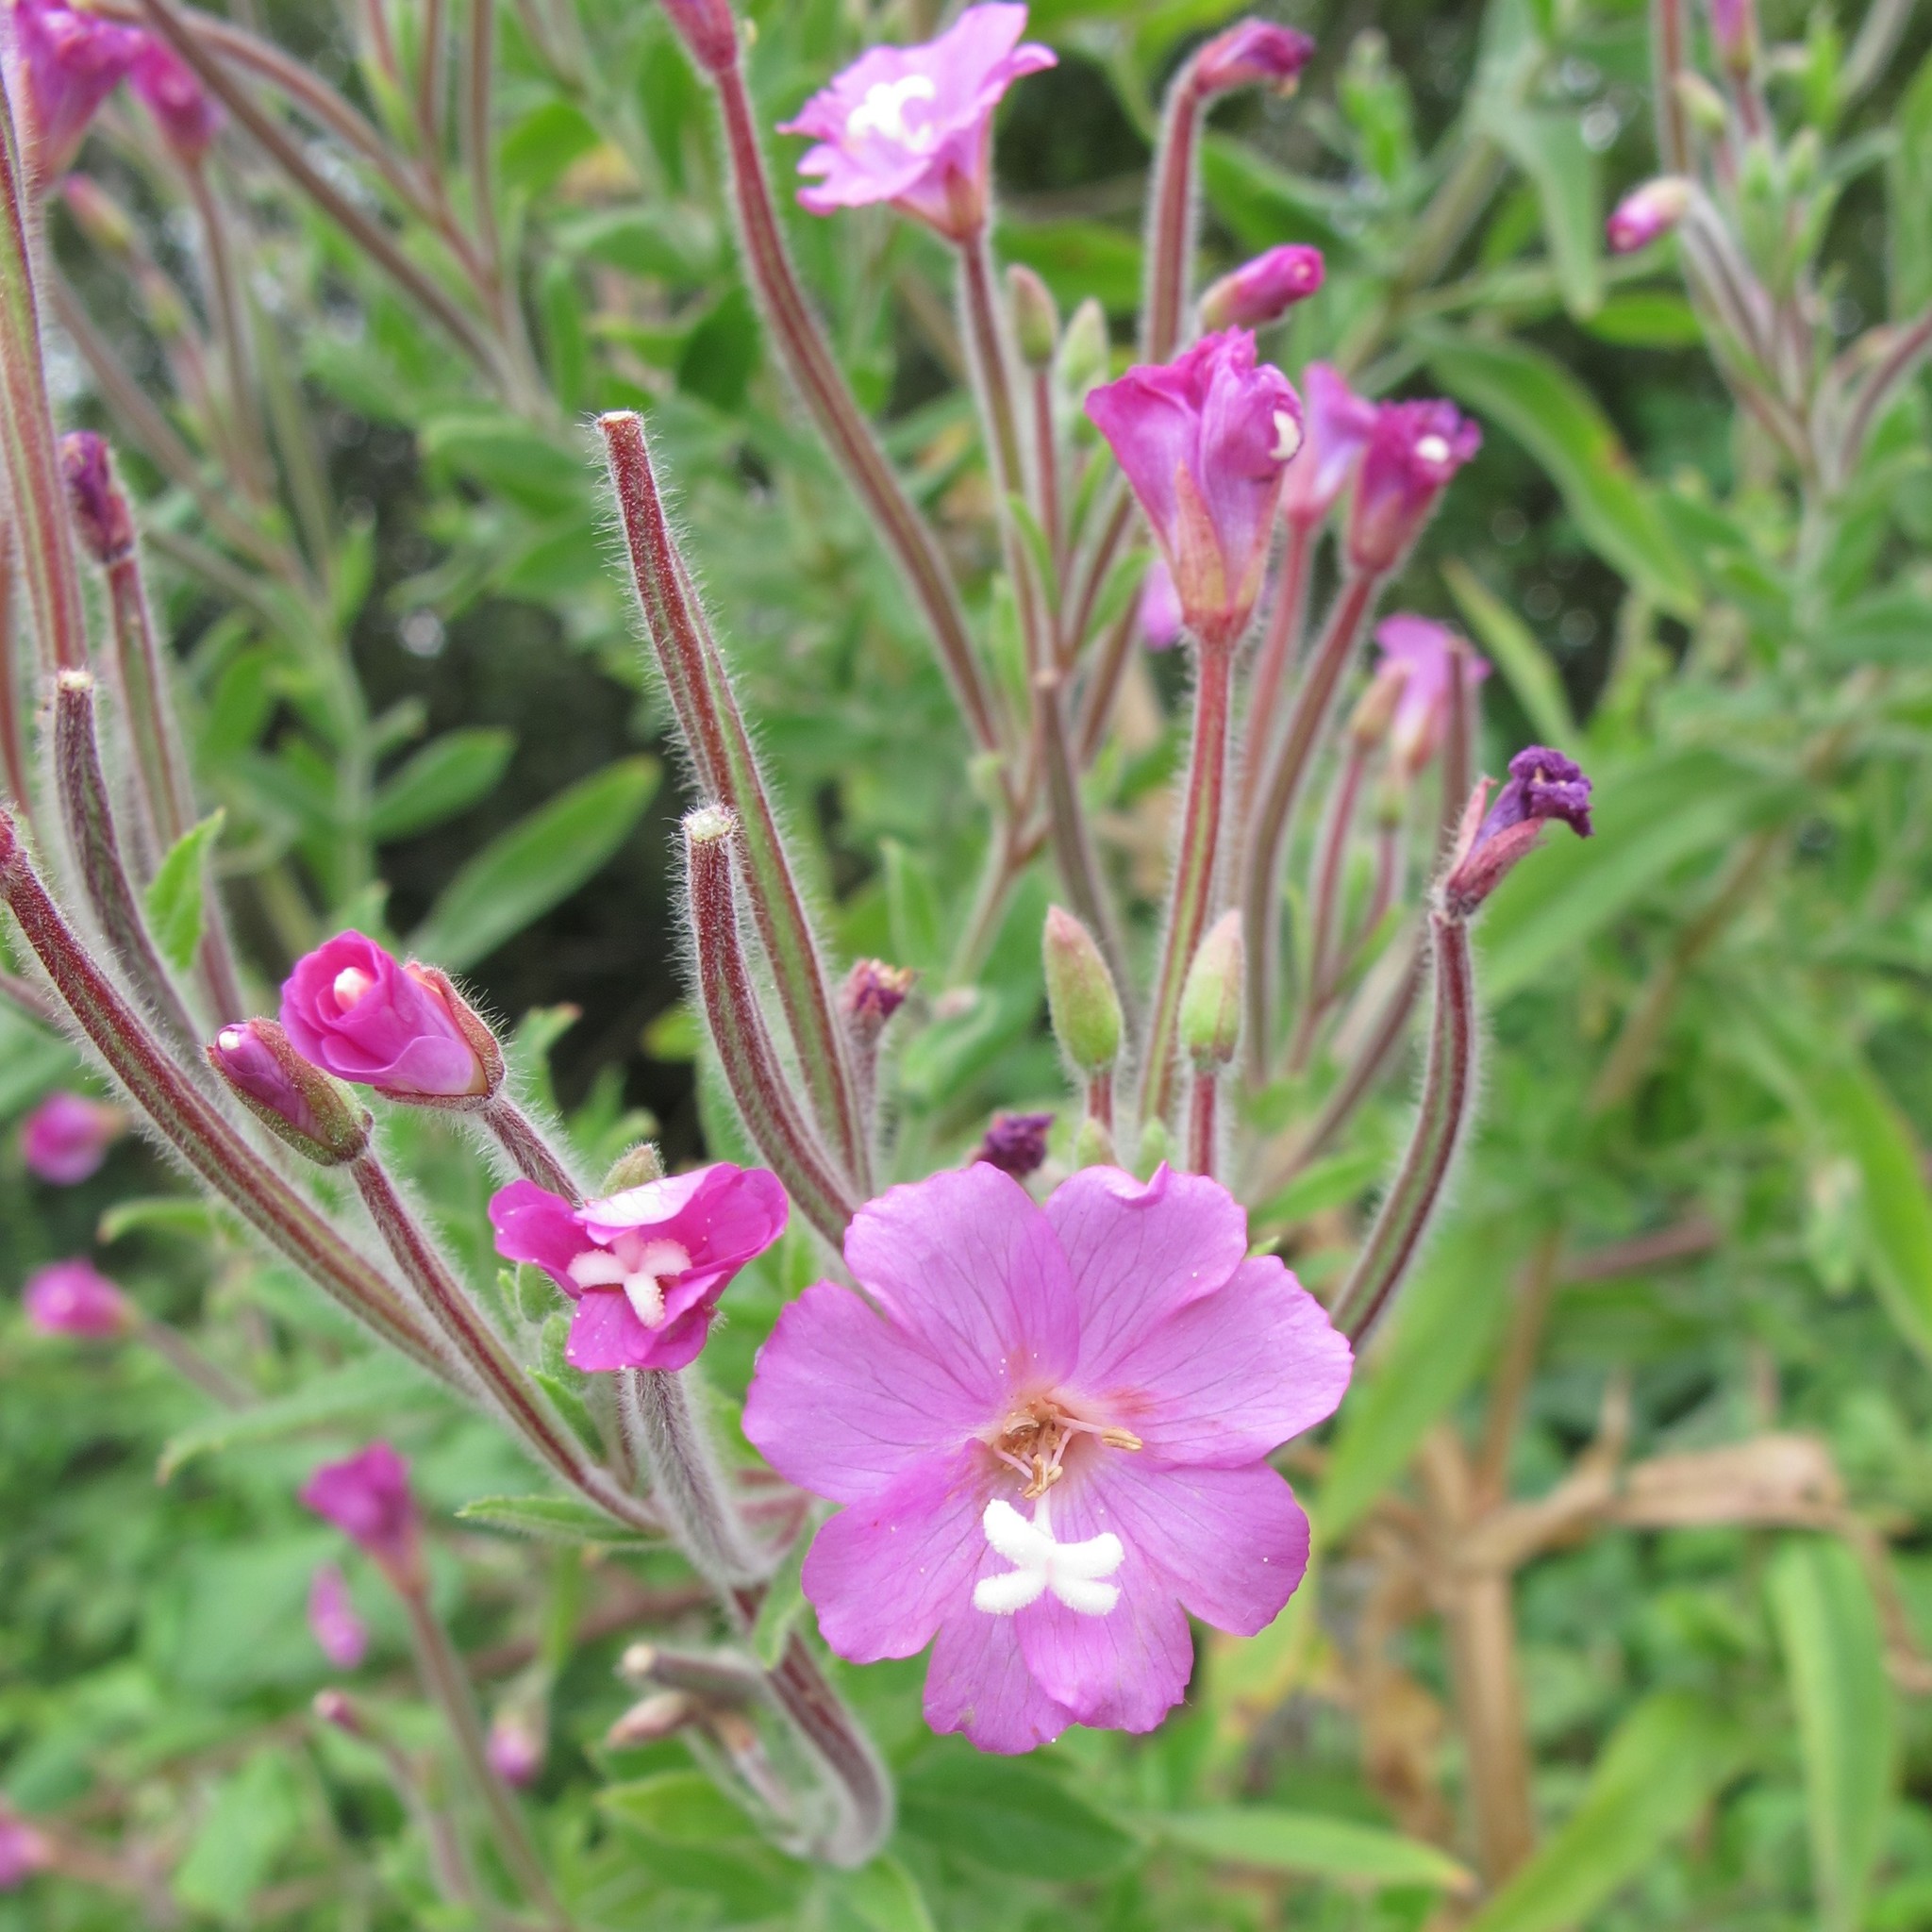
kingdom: Plantae
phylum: Tracheophyta
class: Magnoliopsida
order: Myrtales
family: Onagraceae
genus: Epilobium
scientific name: Epilobium hirsutum
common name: Great willowherb
